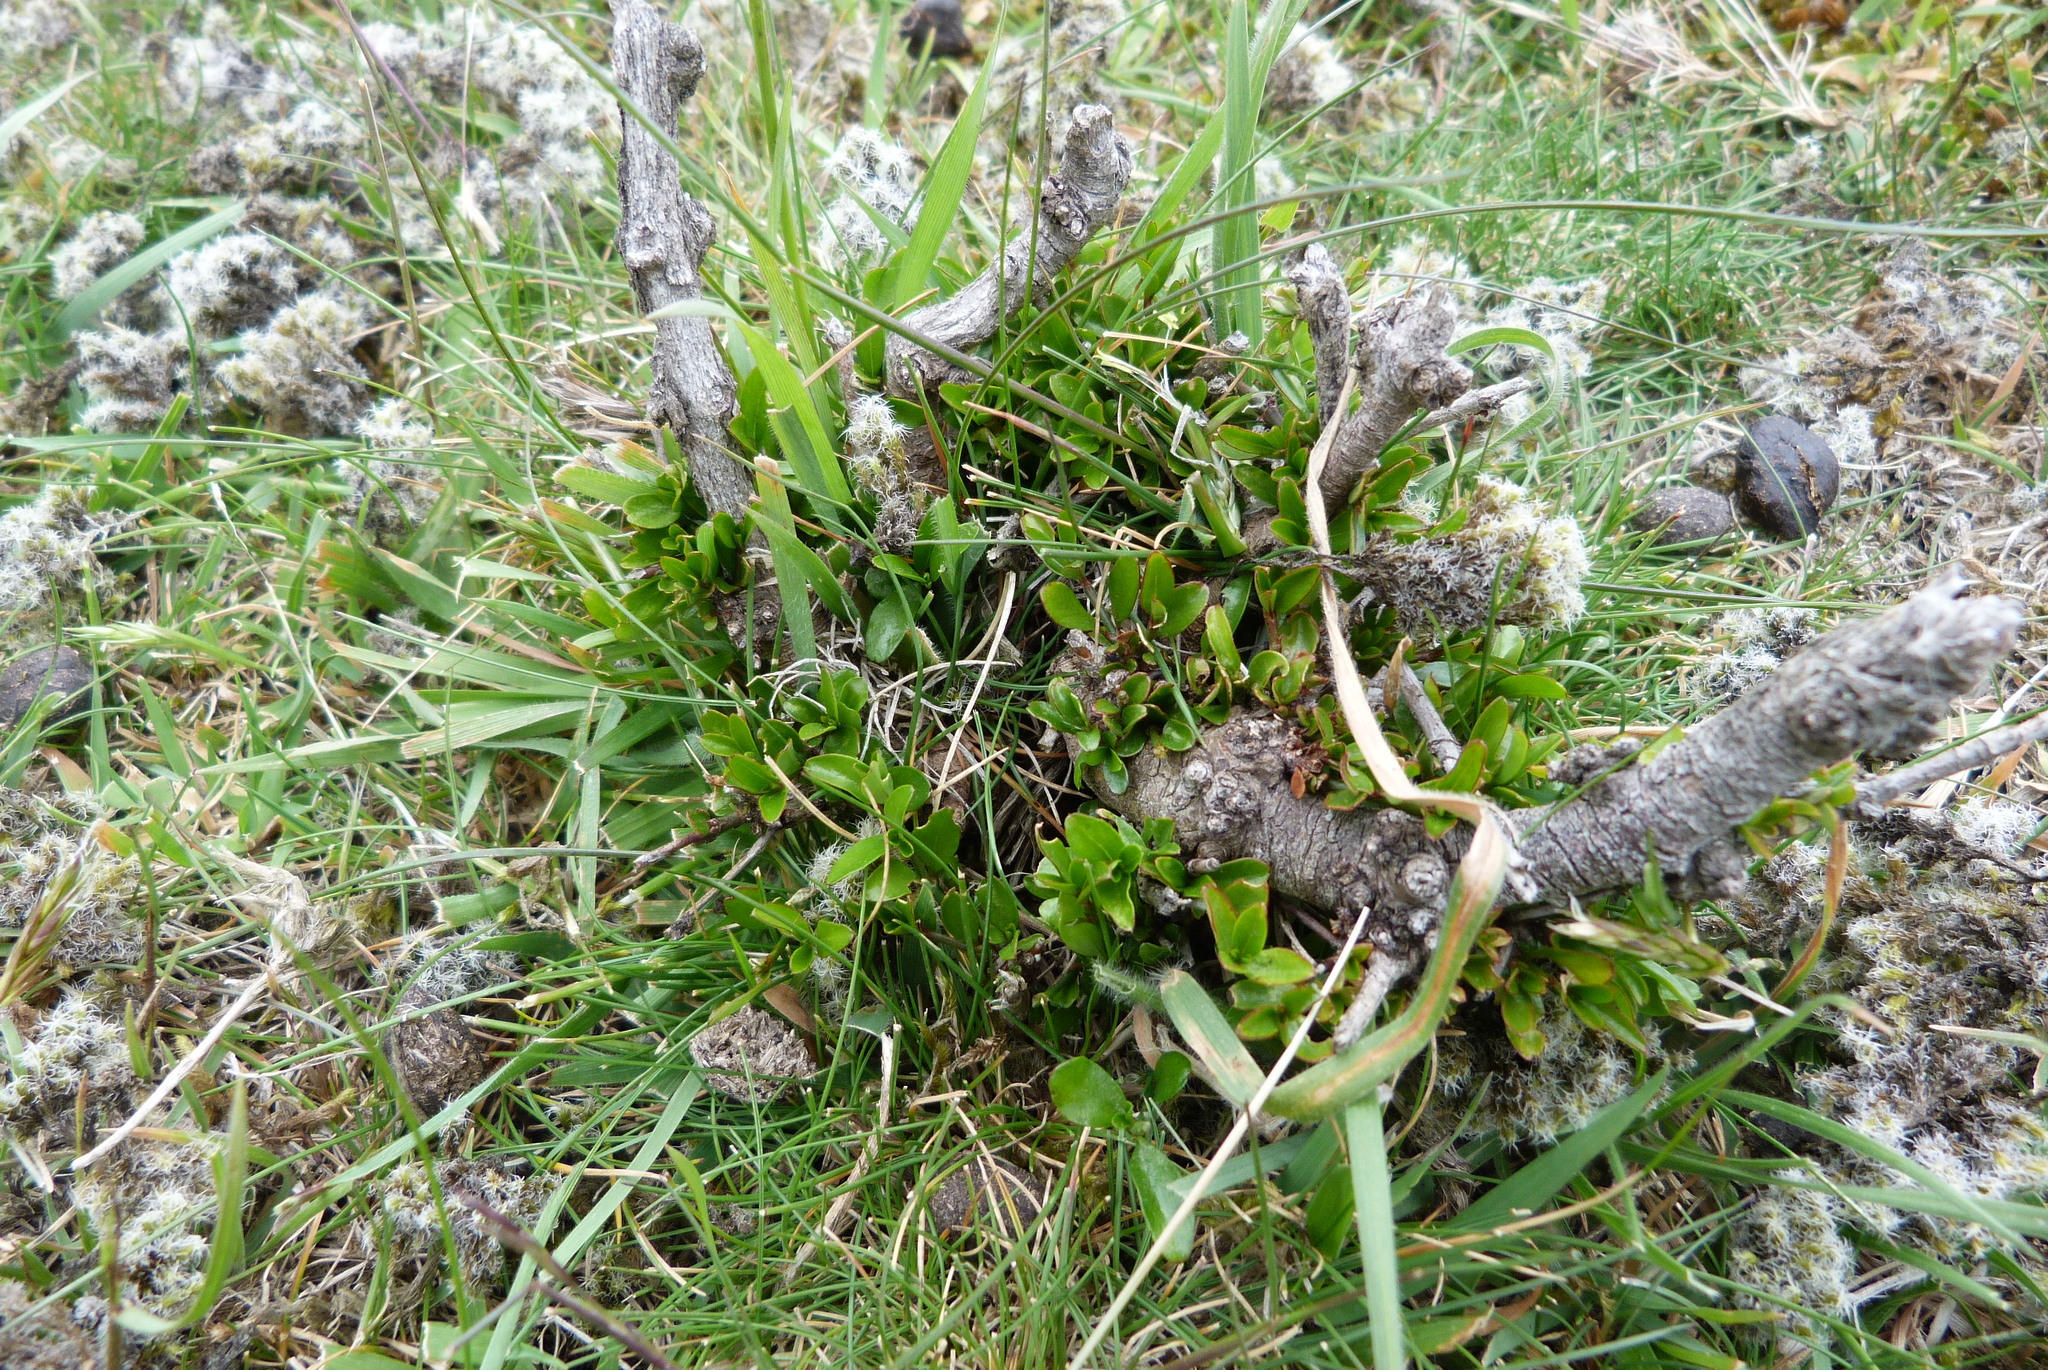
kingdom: Plantae
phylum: Tracheophyta
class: Magnoliopsida
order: Rosales
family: Rhamnaceae
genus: Discaria
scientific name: Discaria toumatou
